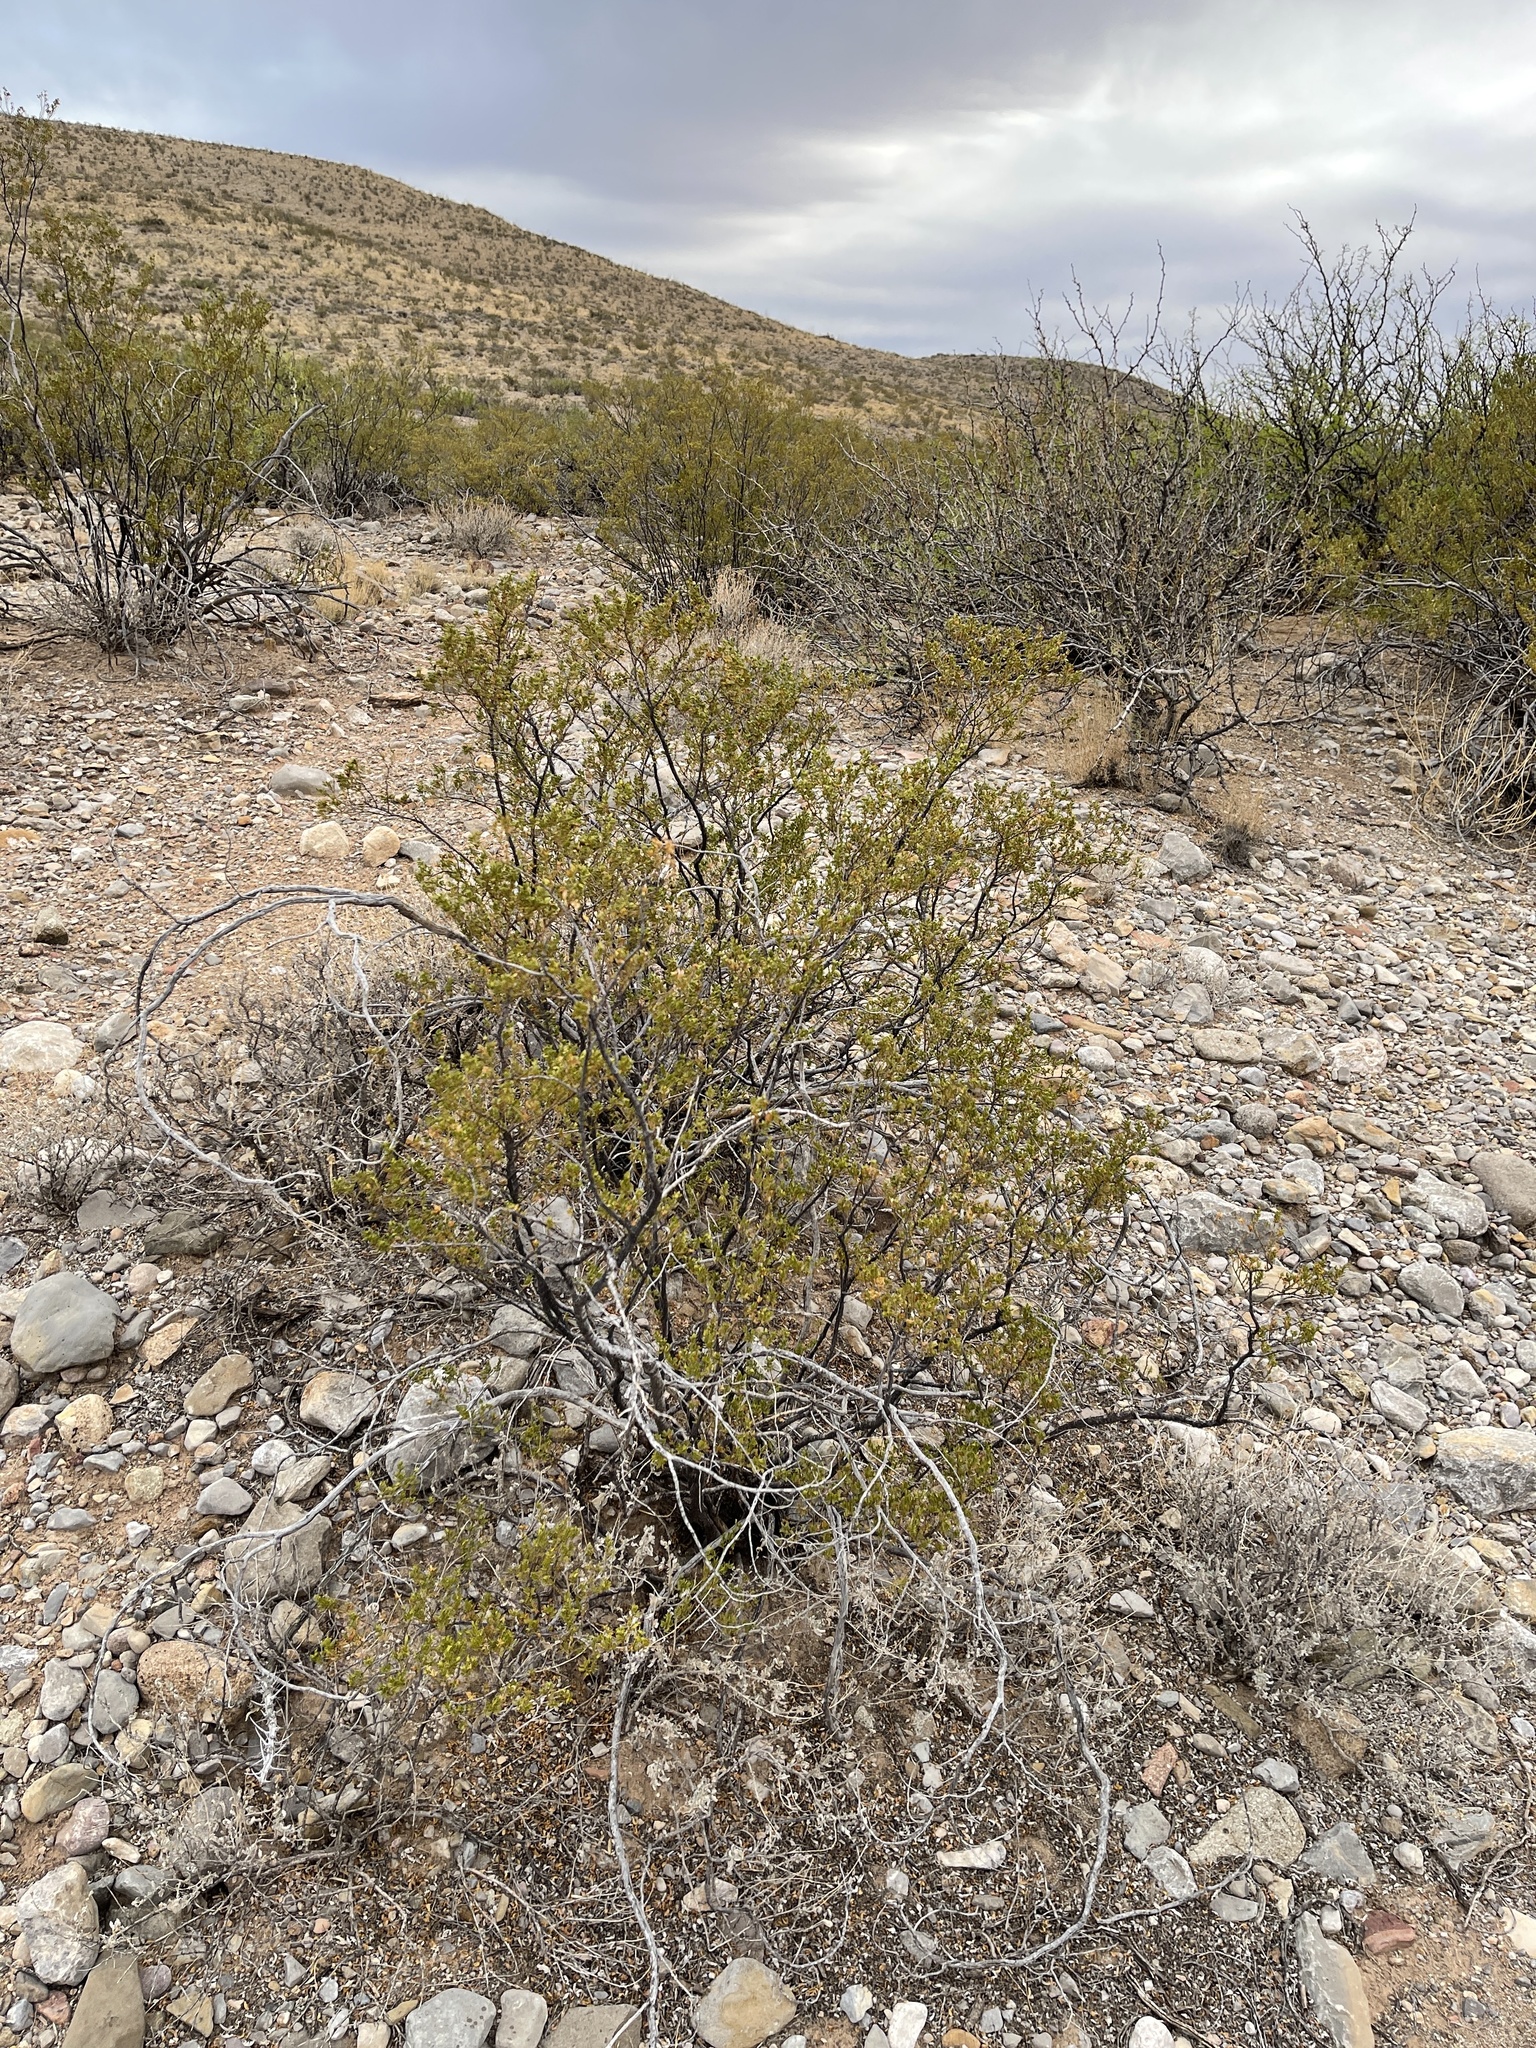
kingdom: Plantae
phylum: Tracheophyta
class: Magnoliopsida
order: Zygophyllales
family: Zygophyllaceae
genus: Larrea
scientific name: Larrea tridentata
